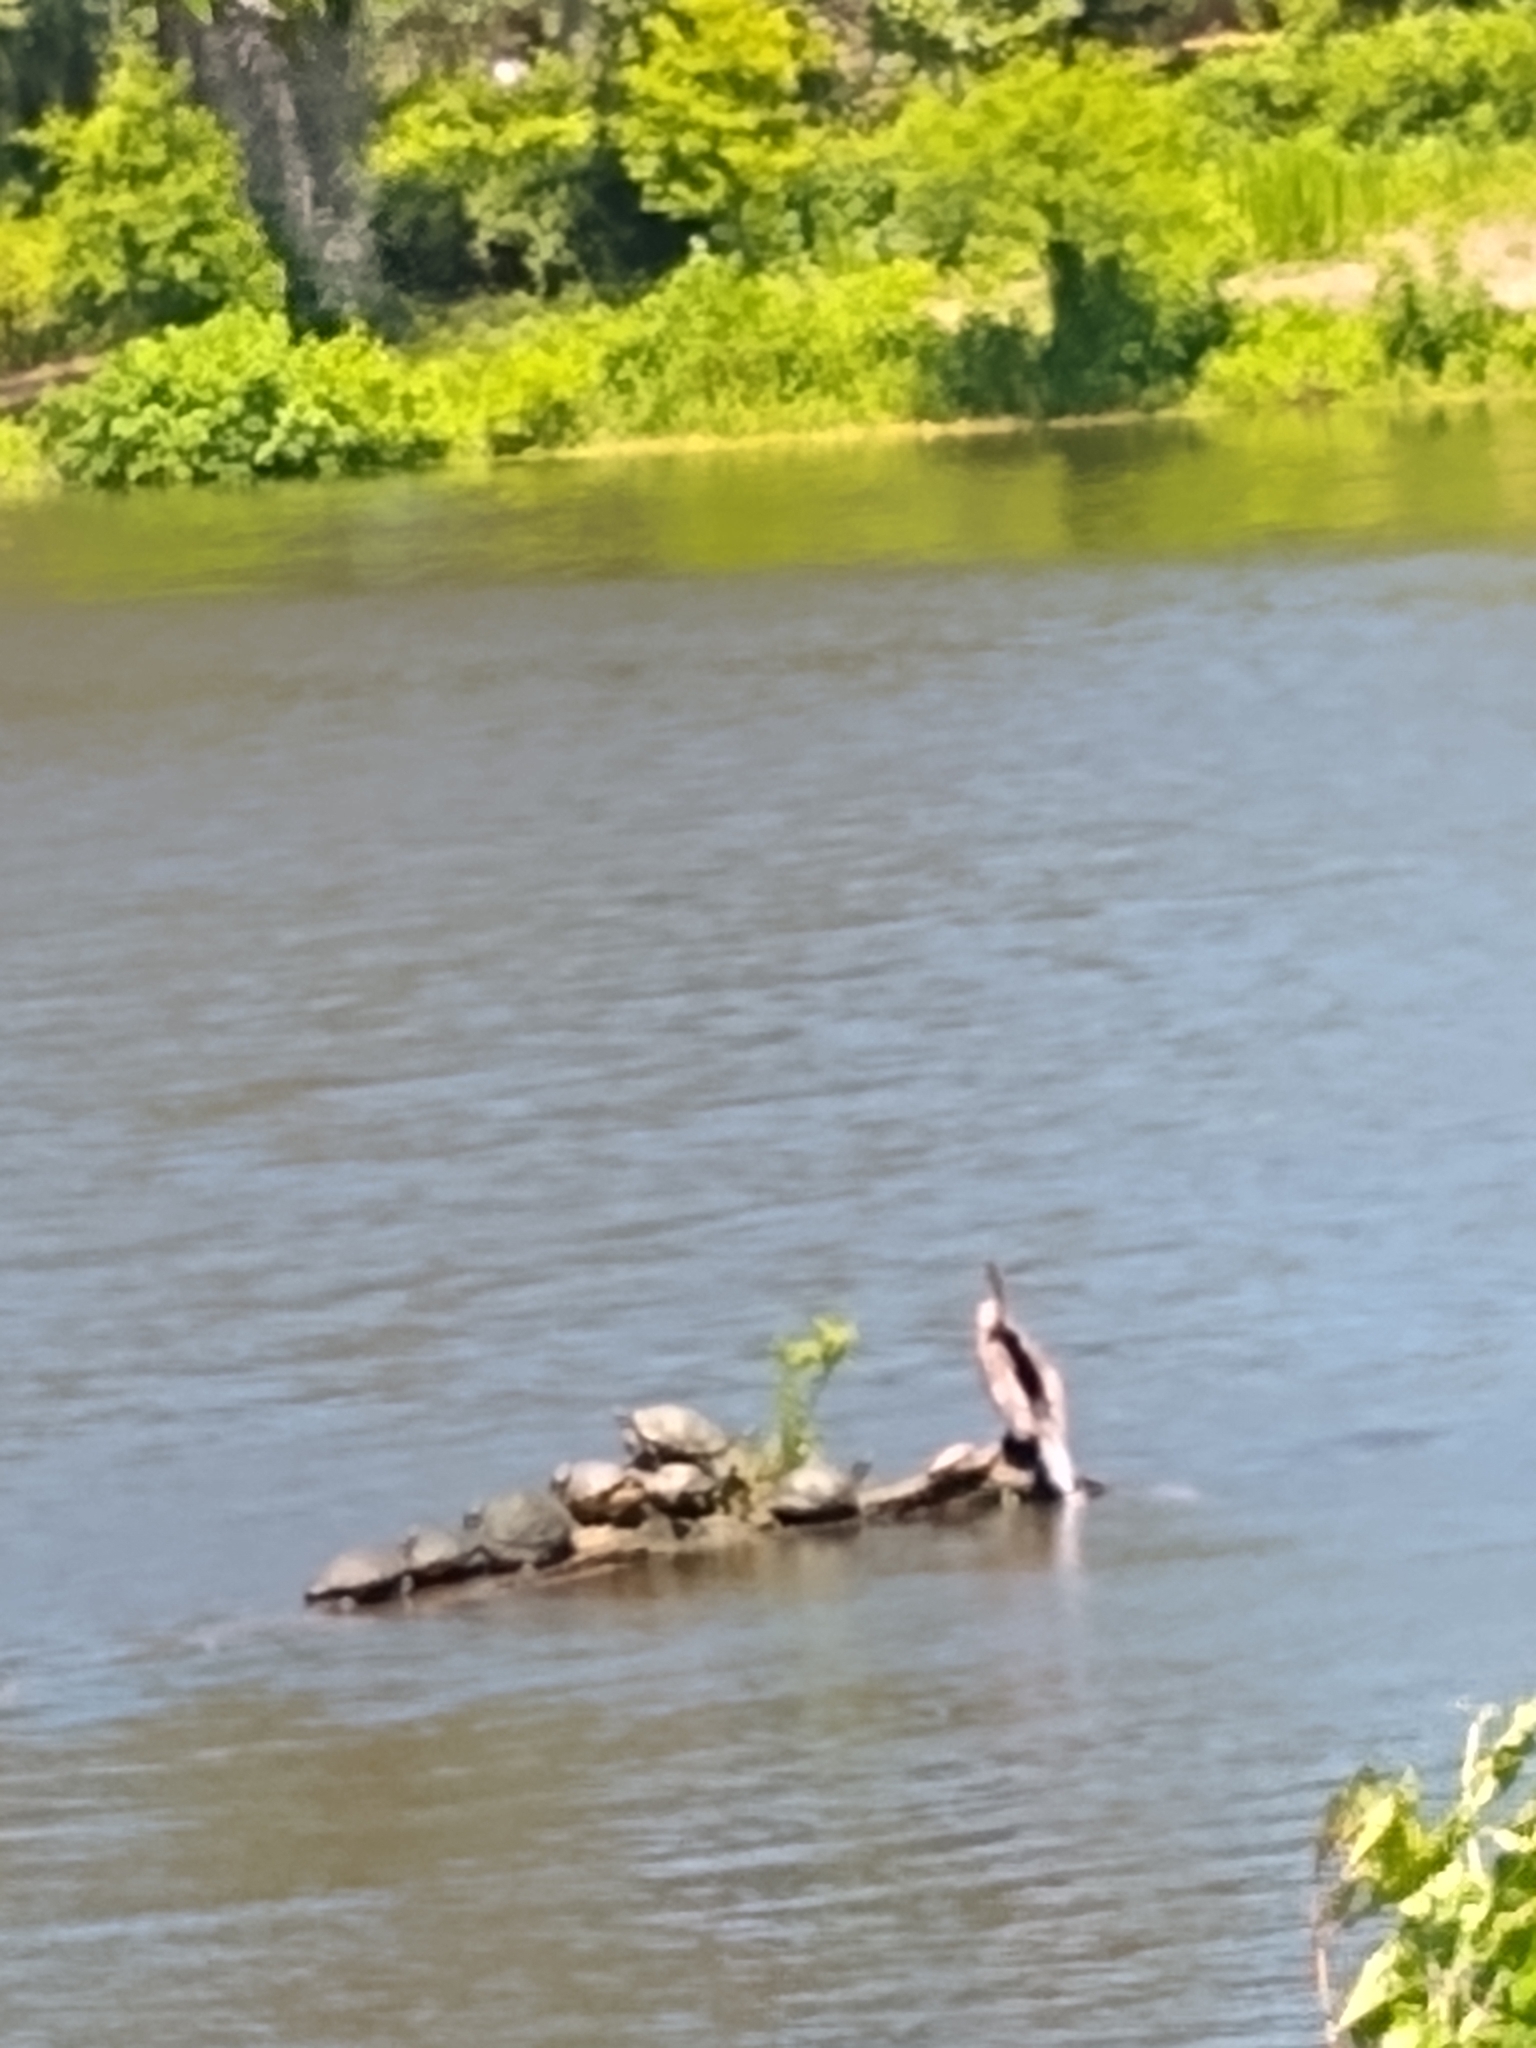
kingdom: Animalia
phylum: Chordata
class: Aves
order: Suliformes
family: Anhingidae
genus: Anhinga
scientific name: Anhinga anhinga
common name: Anhinga
